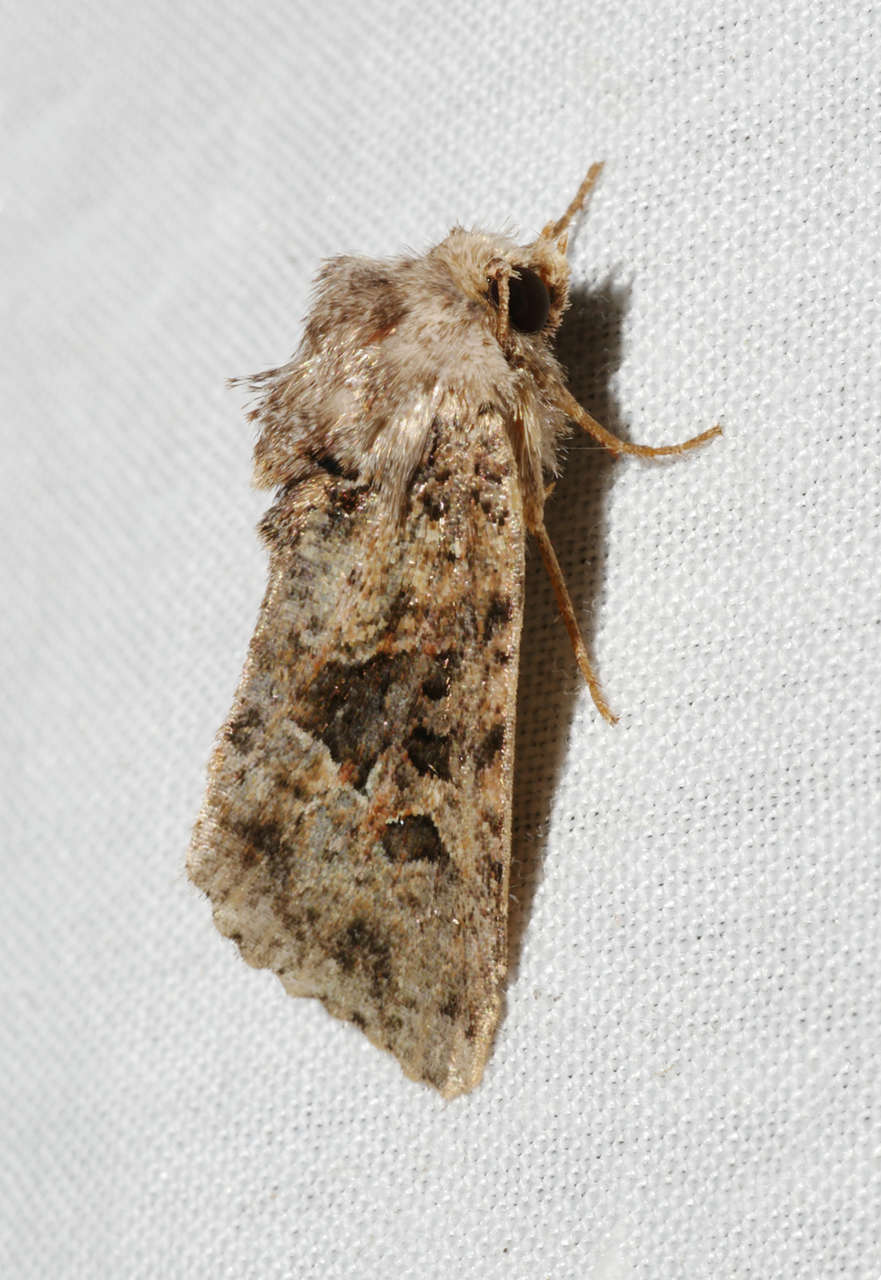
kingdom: Animalia
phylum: Arthropoda
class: Insecta
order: Lepidoptera
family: Noctuidae
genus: Neumichtis
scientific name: Neumichtis mesophaea
